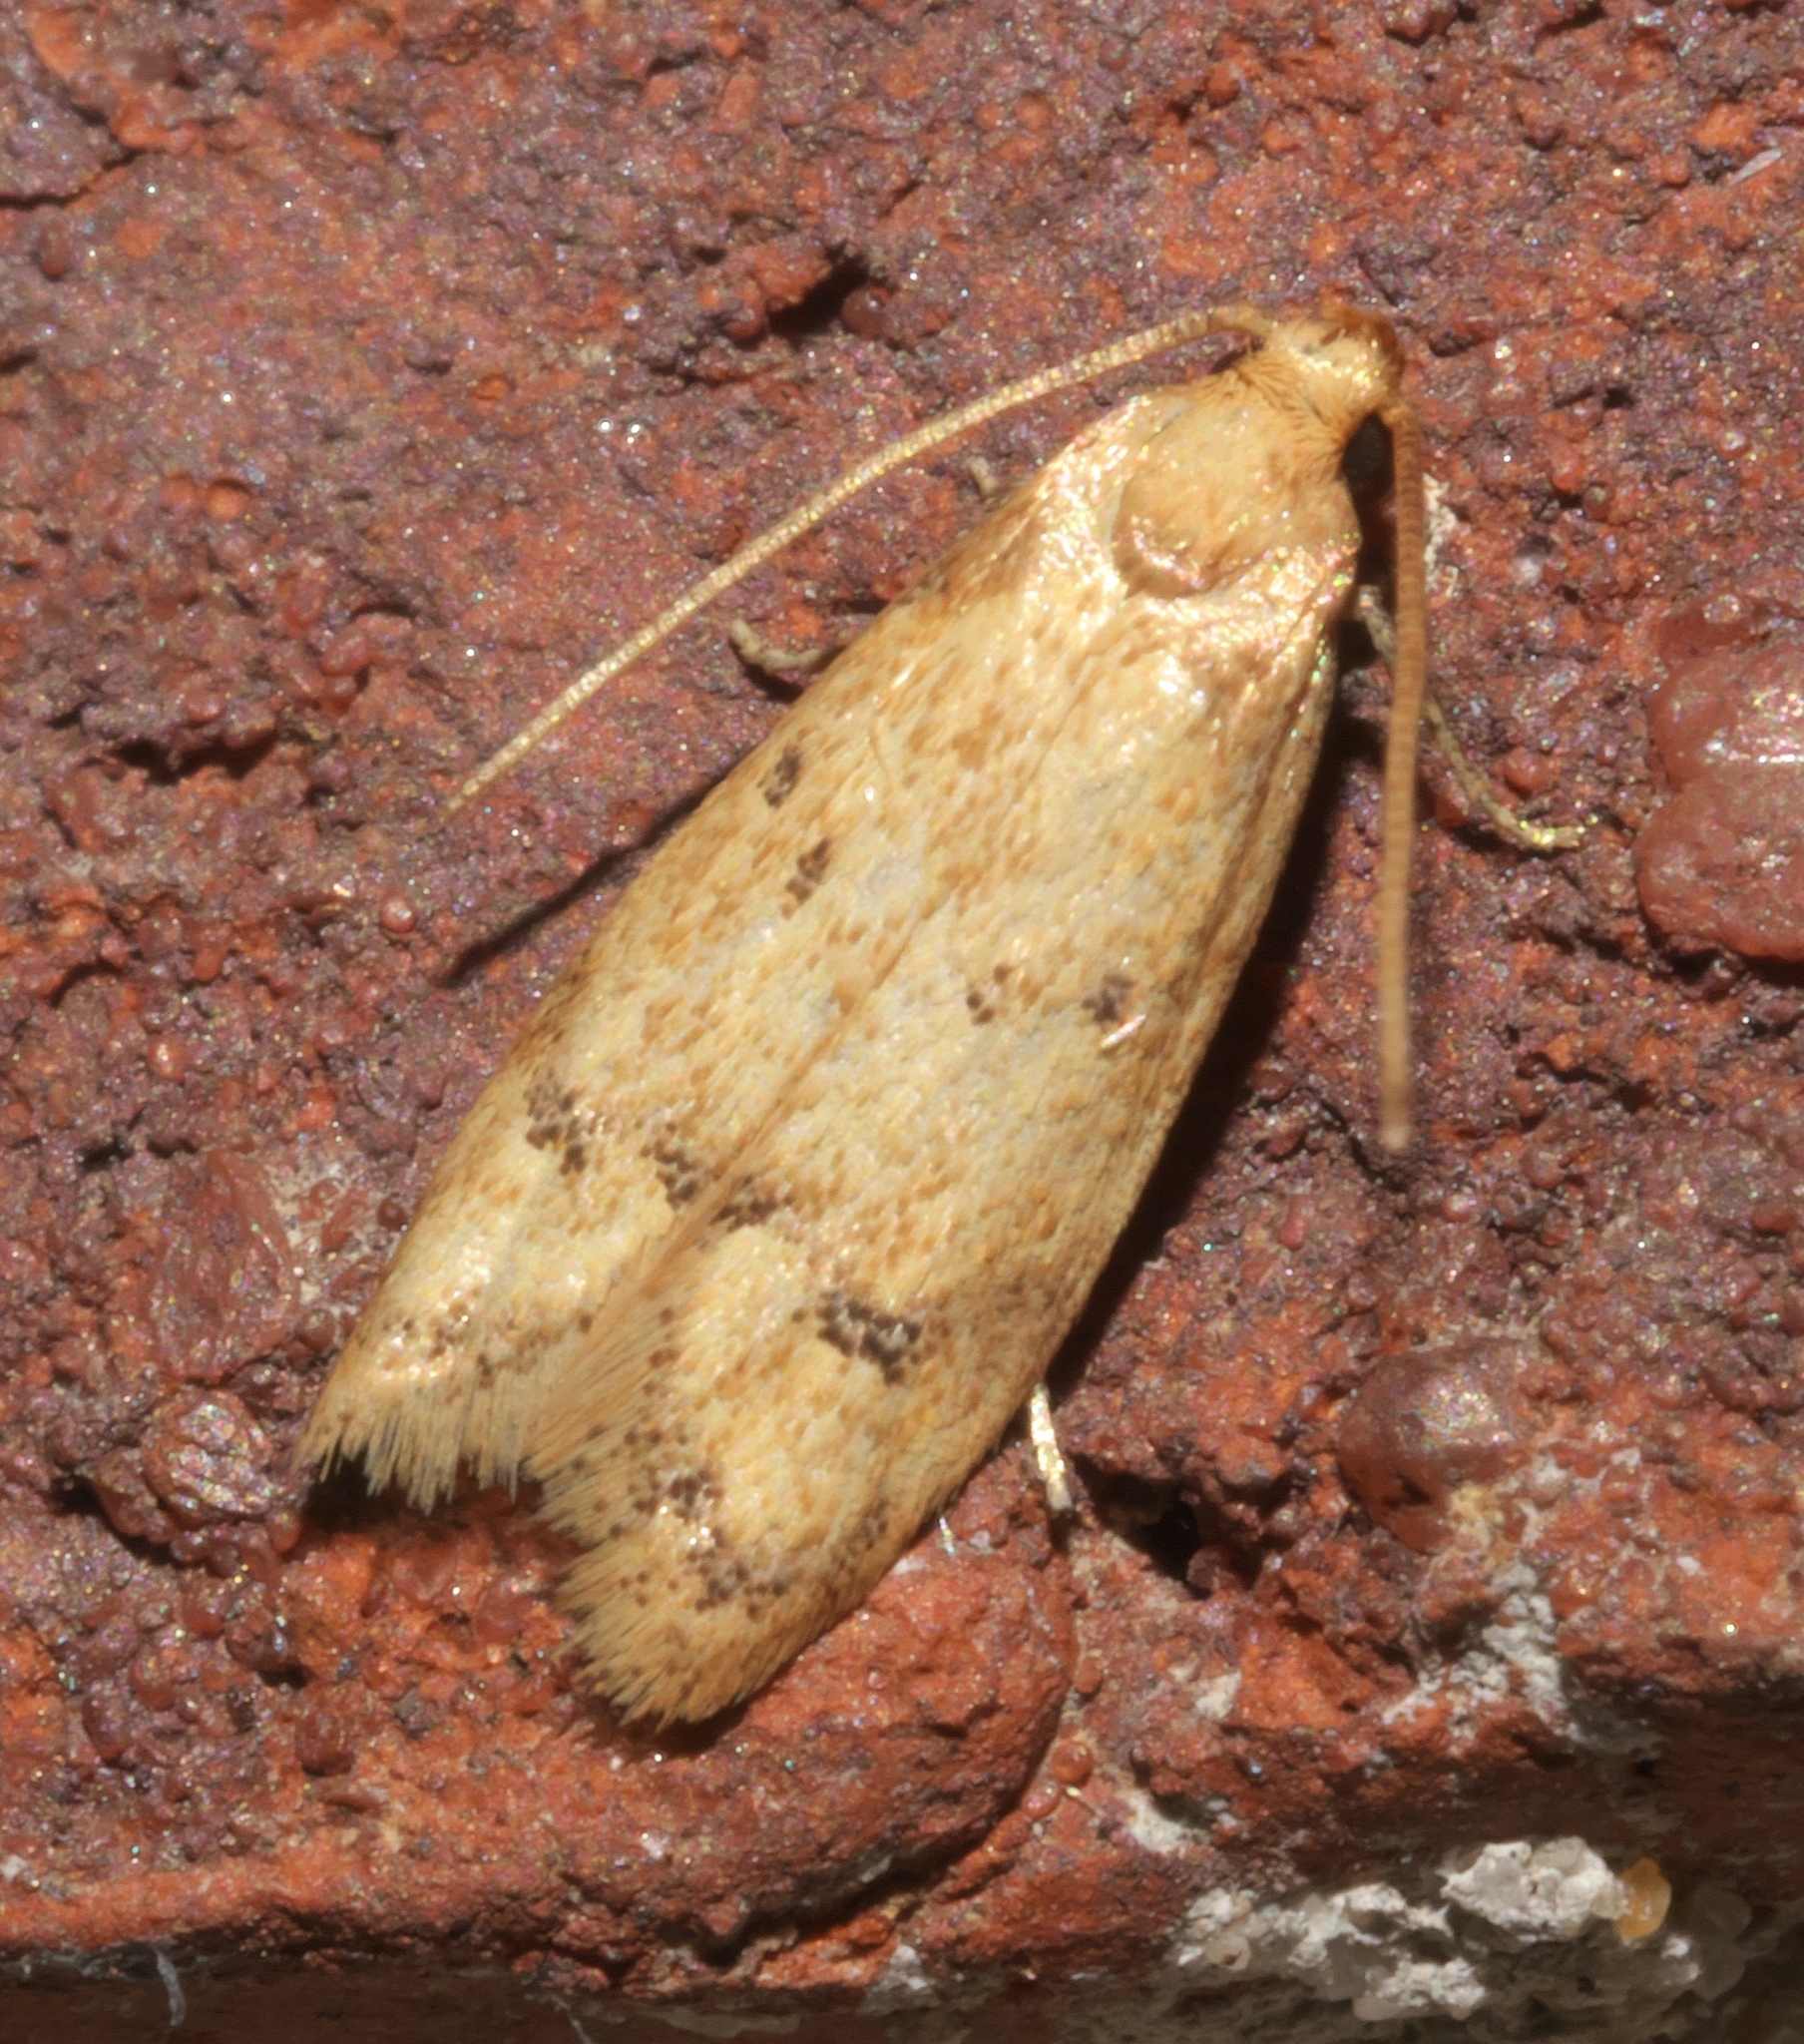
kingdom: Animalia
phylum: Arthropoda
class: Insecta
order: Lepidoptera
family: Autostichidae
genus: Gerdana
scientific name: Gerdana caritella
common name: Gerdana moth
